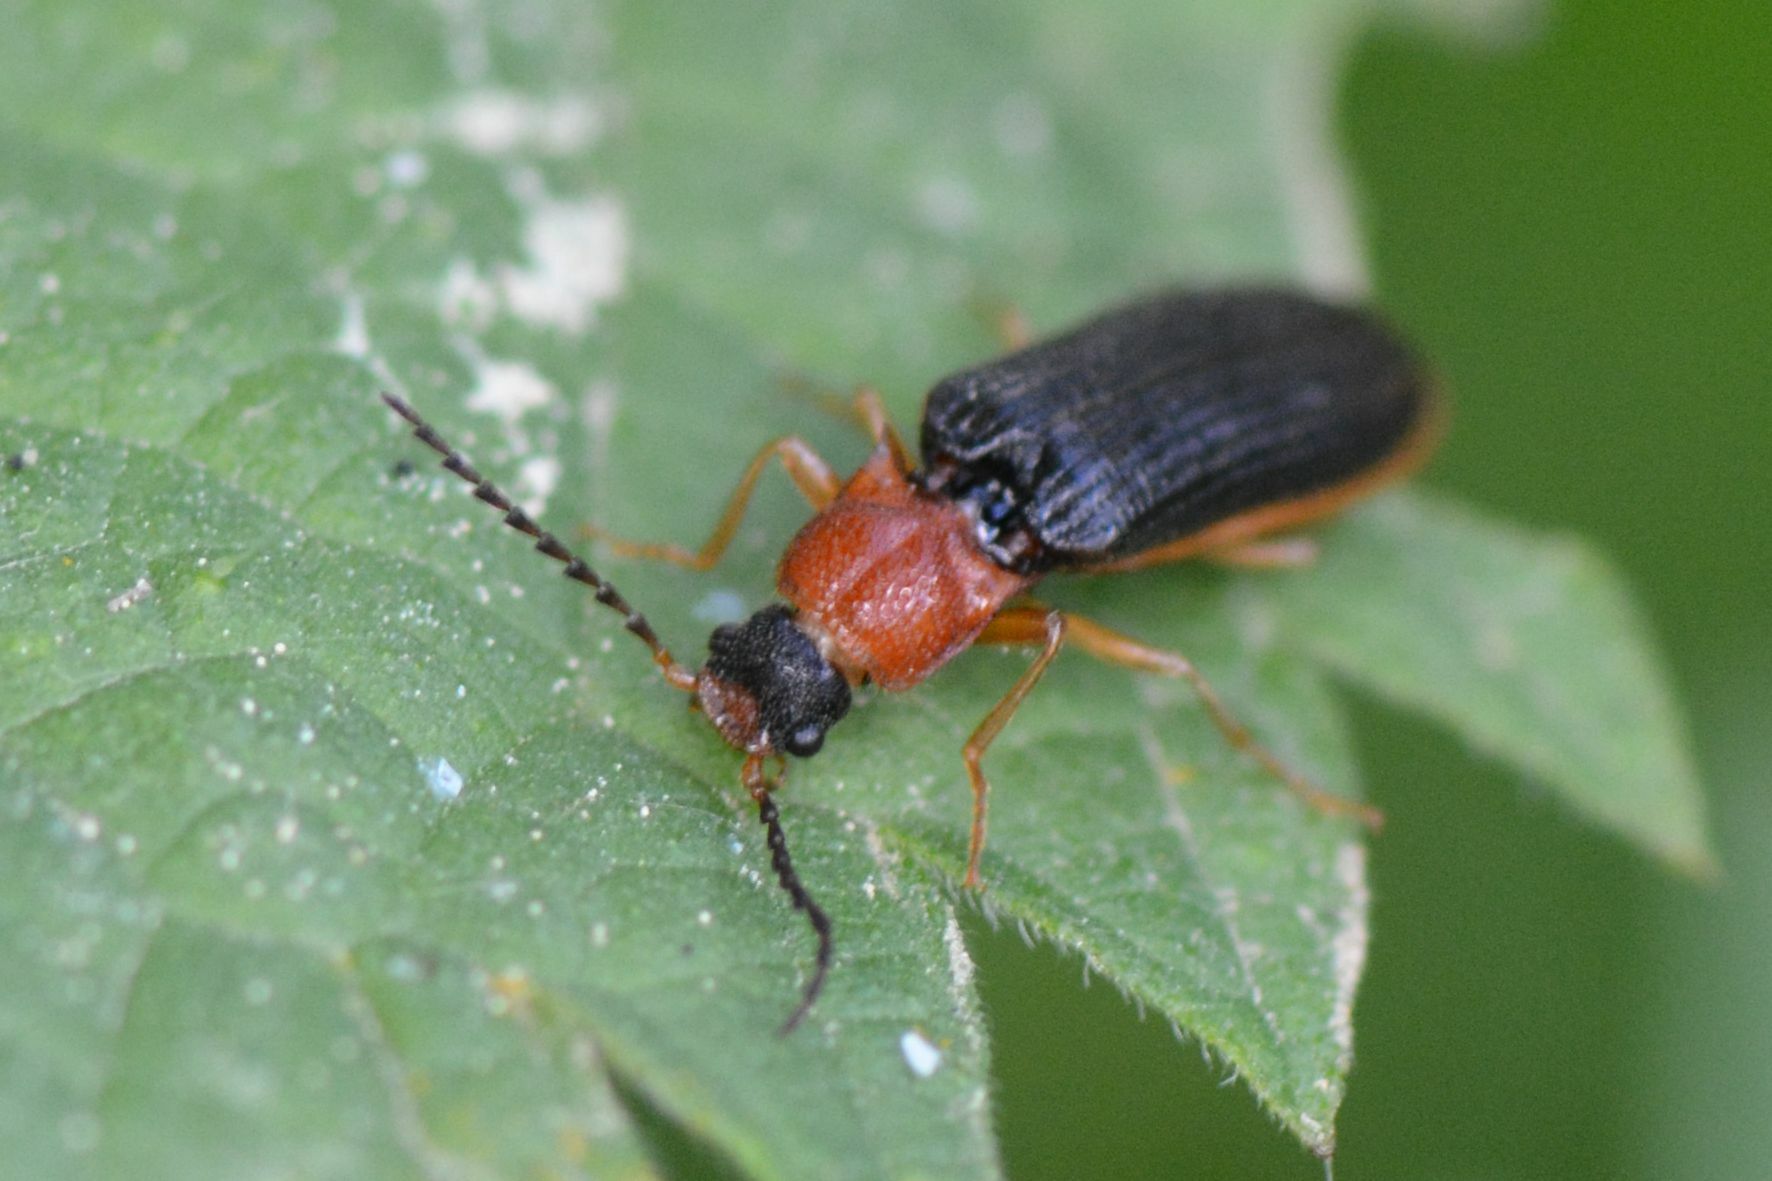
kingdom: Animalia
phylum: Arthropoda
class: Insecta
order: Coleoptera
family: Elateridae
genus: Denticollis
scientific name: Denticollis linearis
